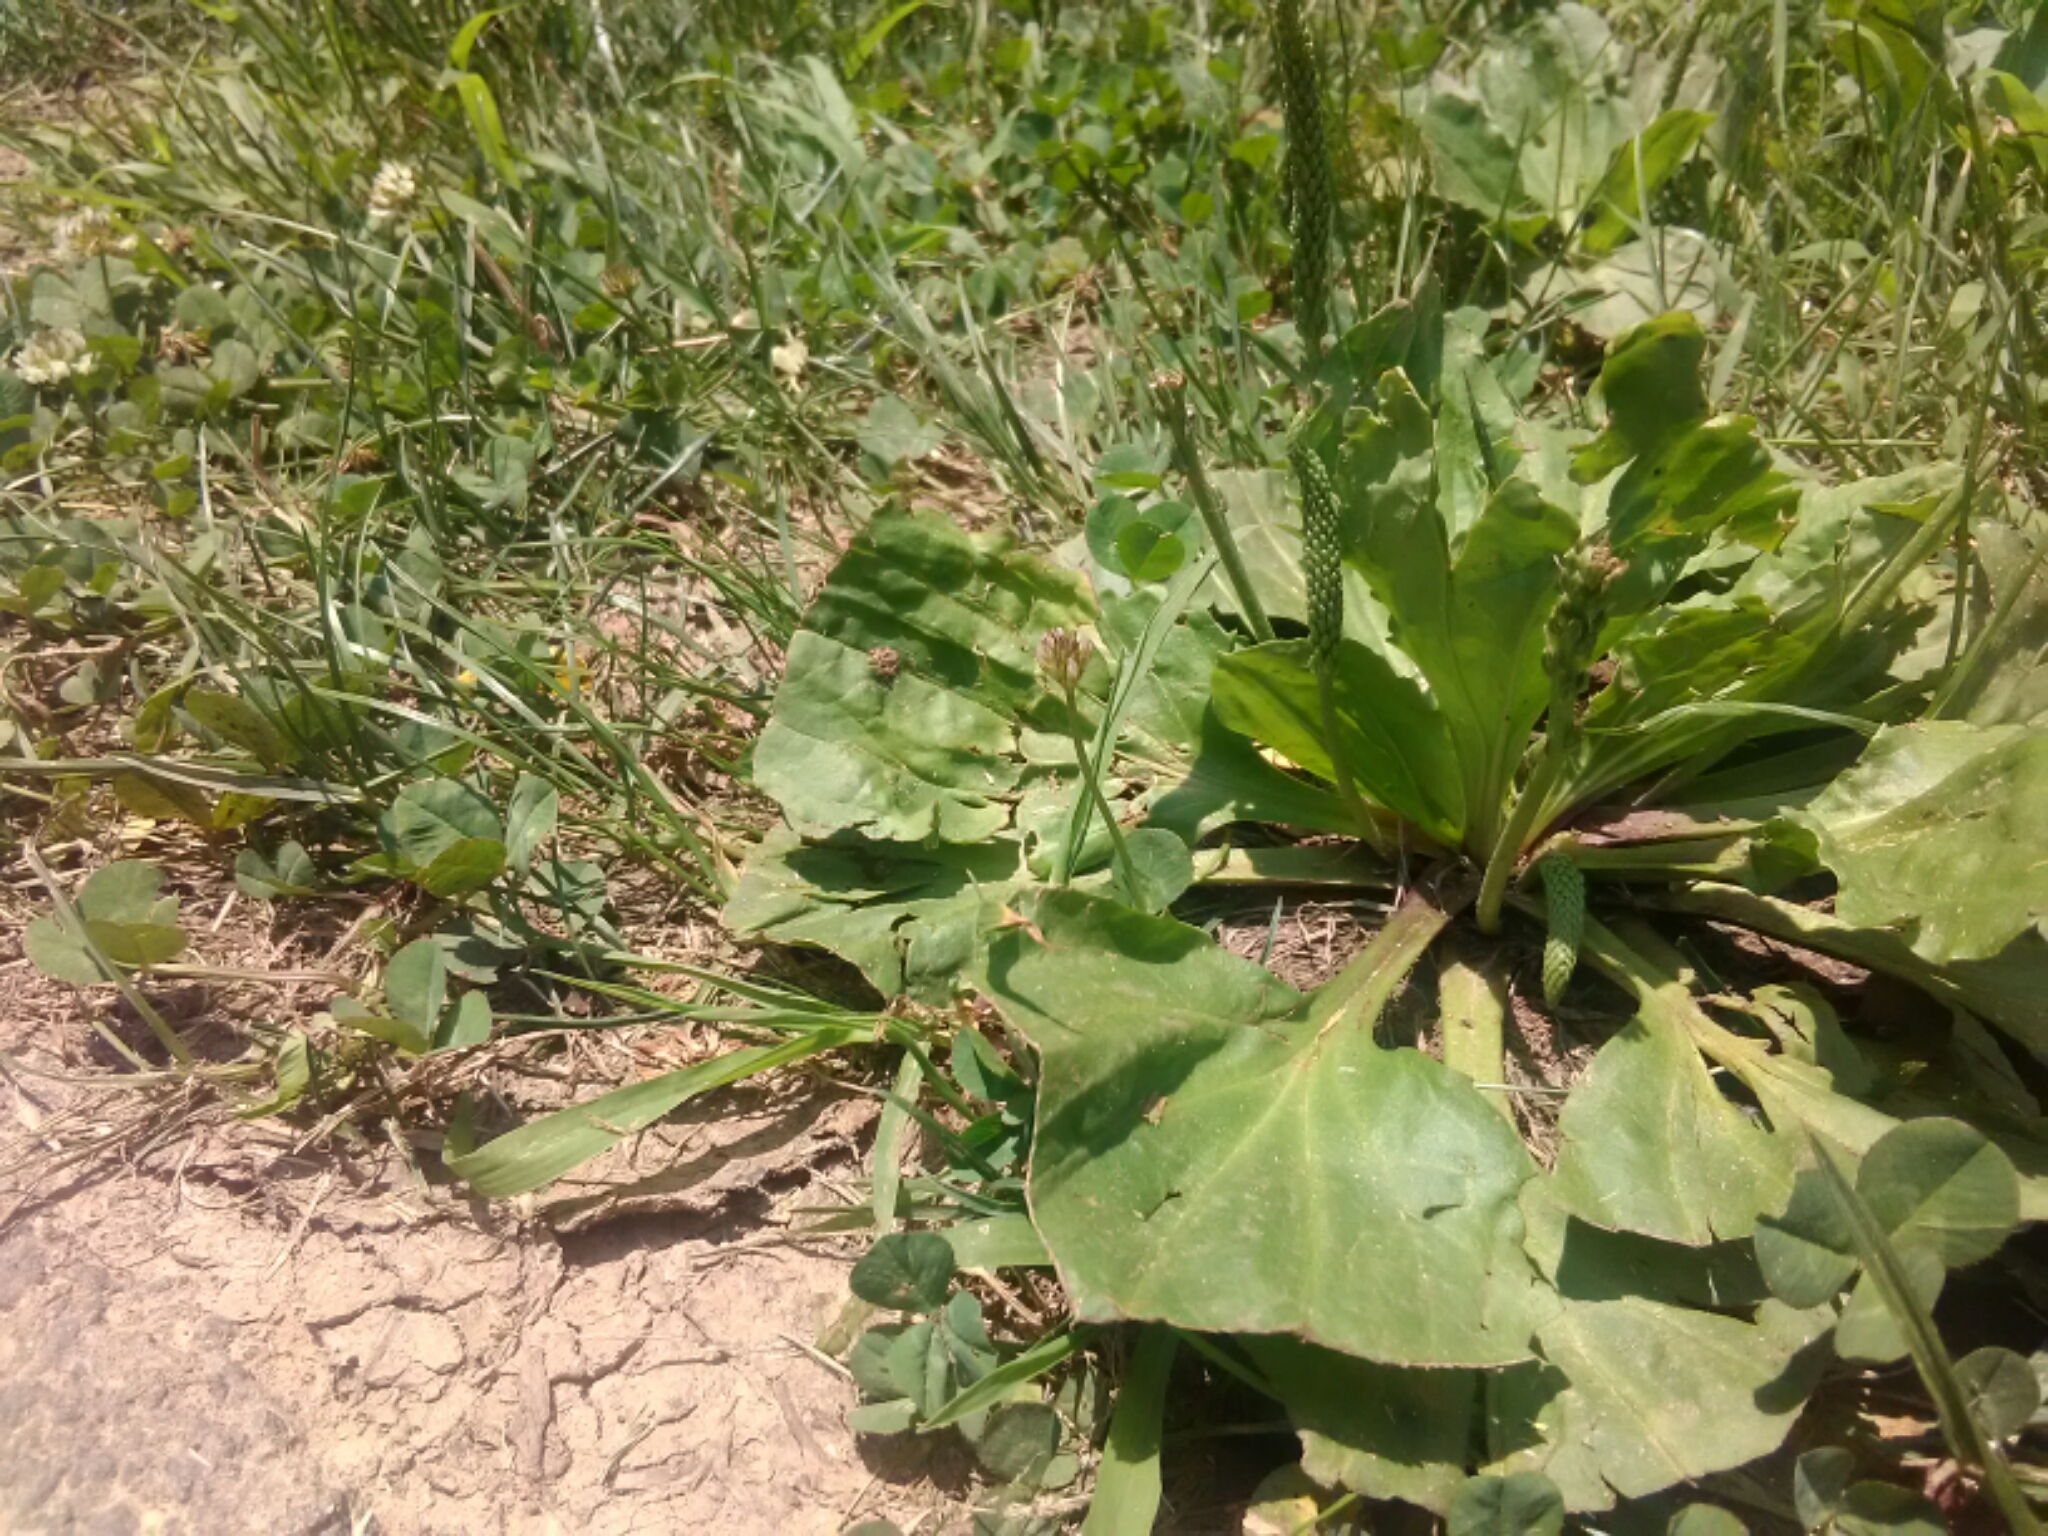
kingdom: Plantae
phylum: Tracheophyta
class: Magnoliopsida
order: Lamiales
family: Plantaginaceae
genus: Plantago
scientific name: Plantago major
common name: Common plantain
